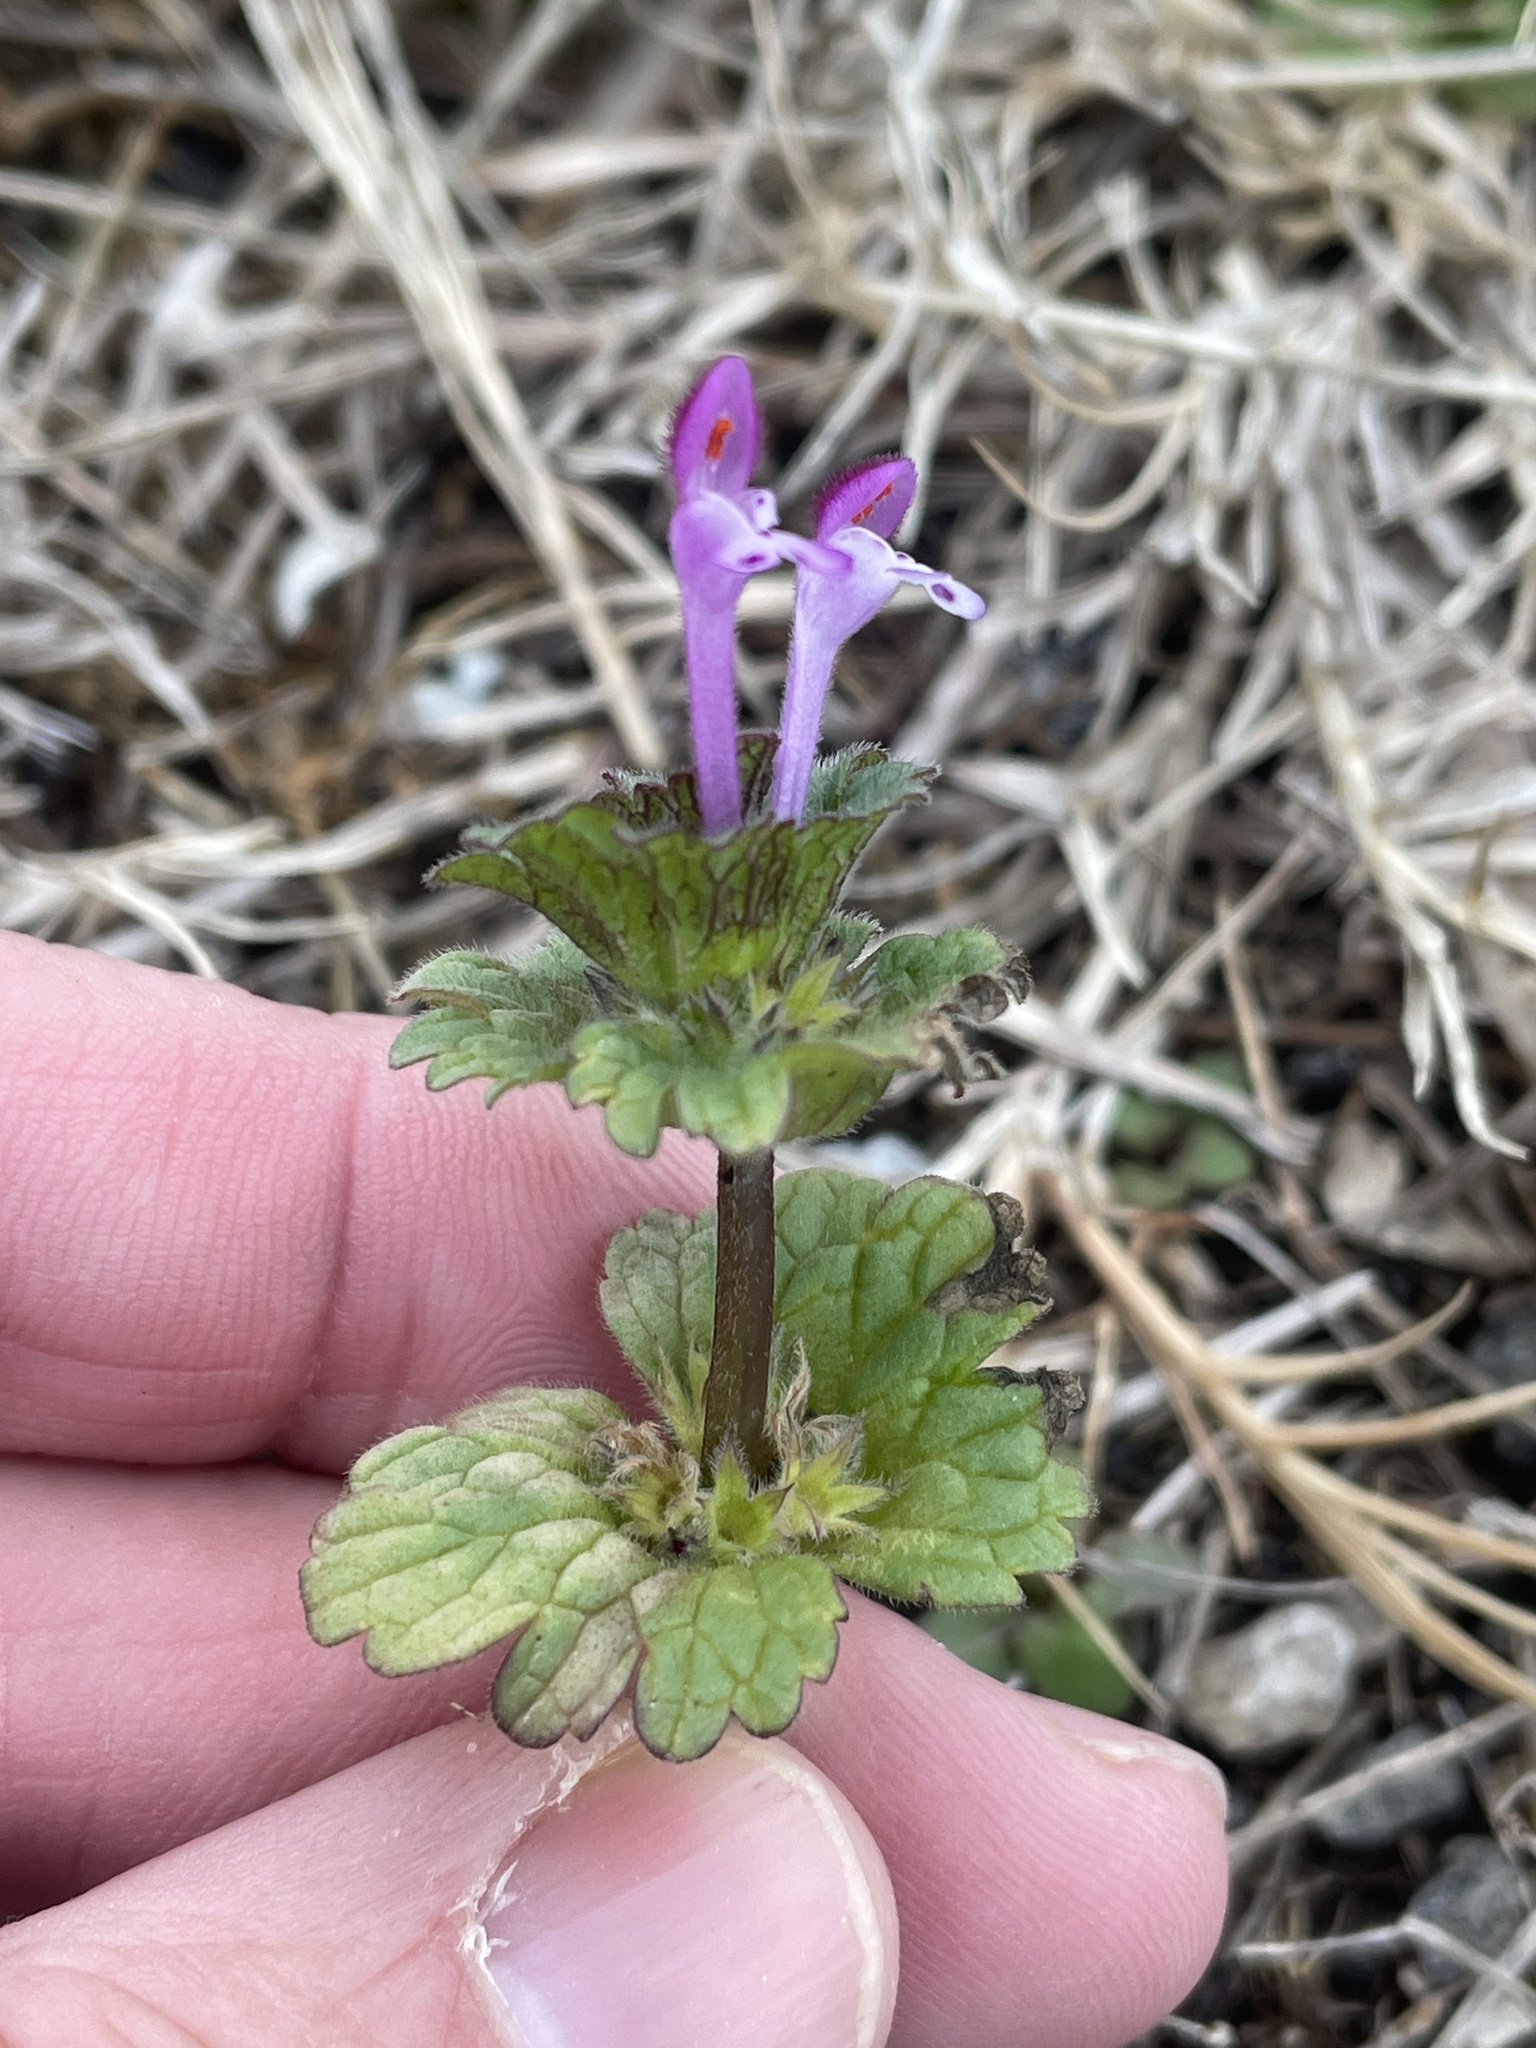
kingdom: Plantae
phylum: Tracheophyta
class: Magnoliopsida
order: Lamiales
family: Lamiaceae
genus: Lamium
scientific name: Lamium amplexicaule
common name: Henbit dead-nettle
